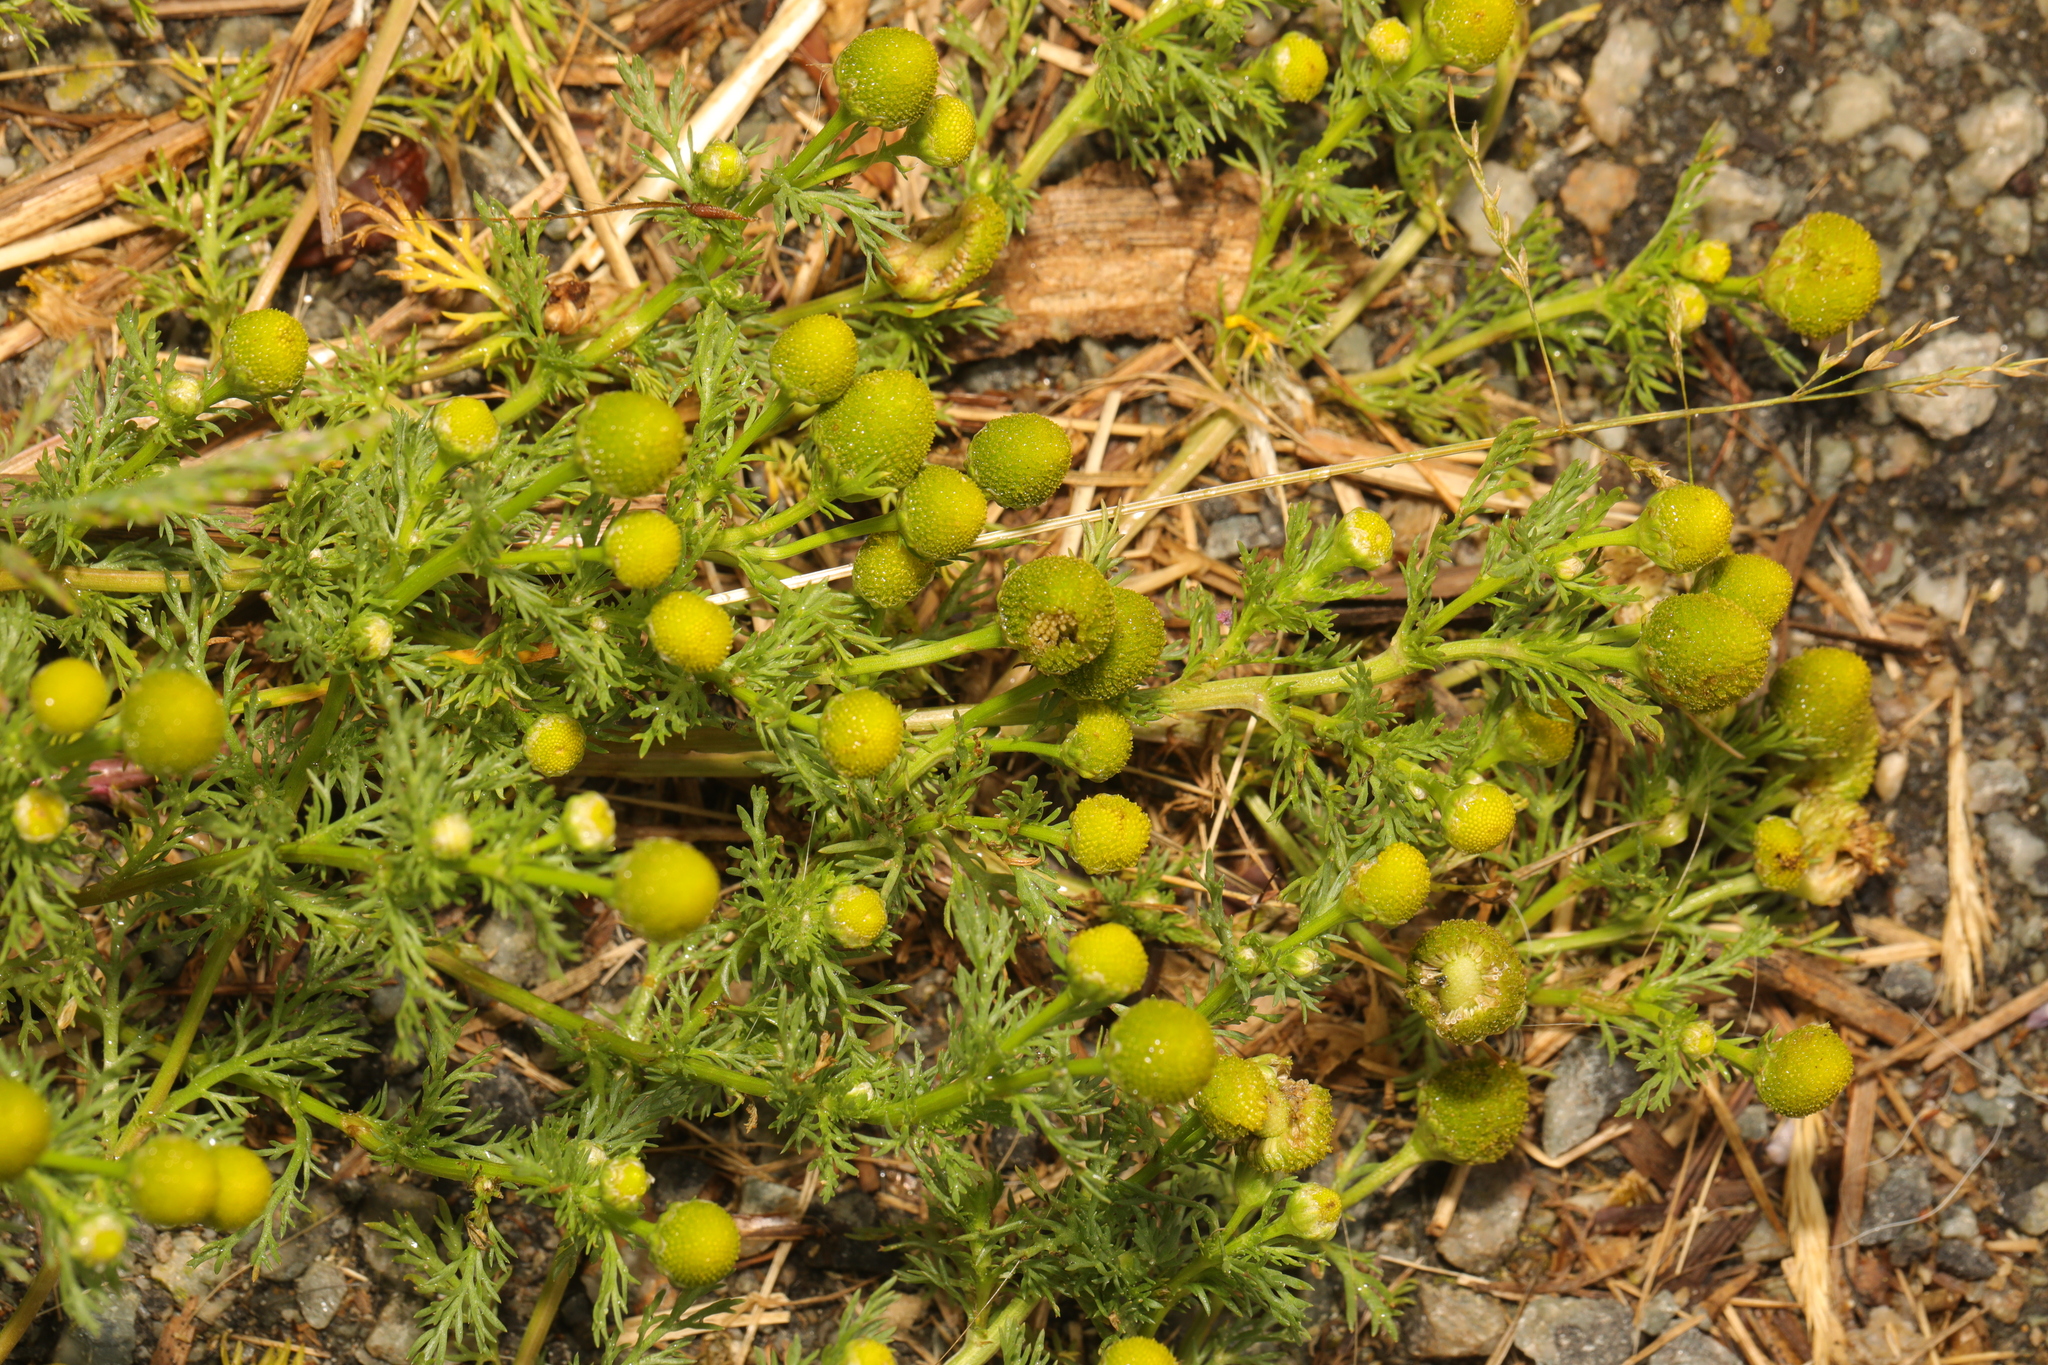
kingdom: Plantae
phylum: Tracheophyta
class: Magnoliopsida
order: Asterales
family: Asteraceae
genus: Matricaria
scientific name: Matricaria discoidea
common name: Disc mayweed
